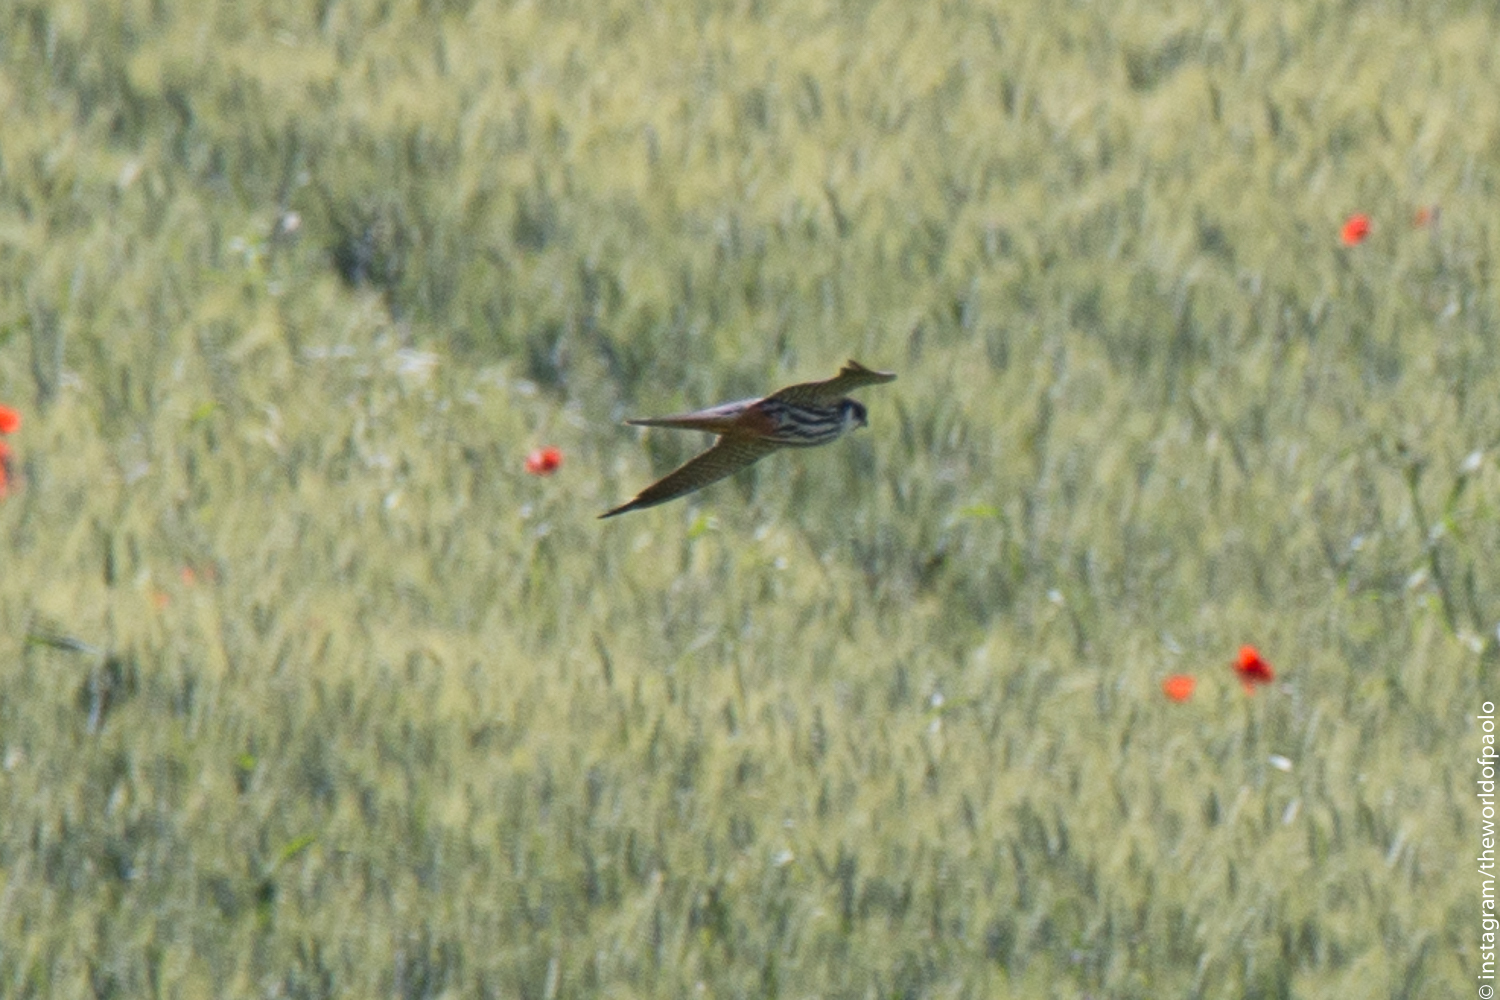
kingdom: Animalia
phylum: Chordata
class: Aves
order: Falconiformes
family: Falconidae
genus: Falco
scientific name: Falco subbuteo
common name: Eurasian hobby
